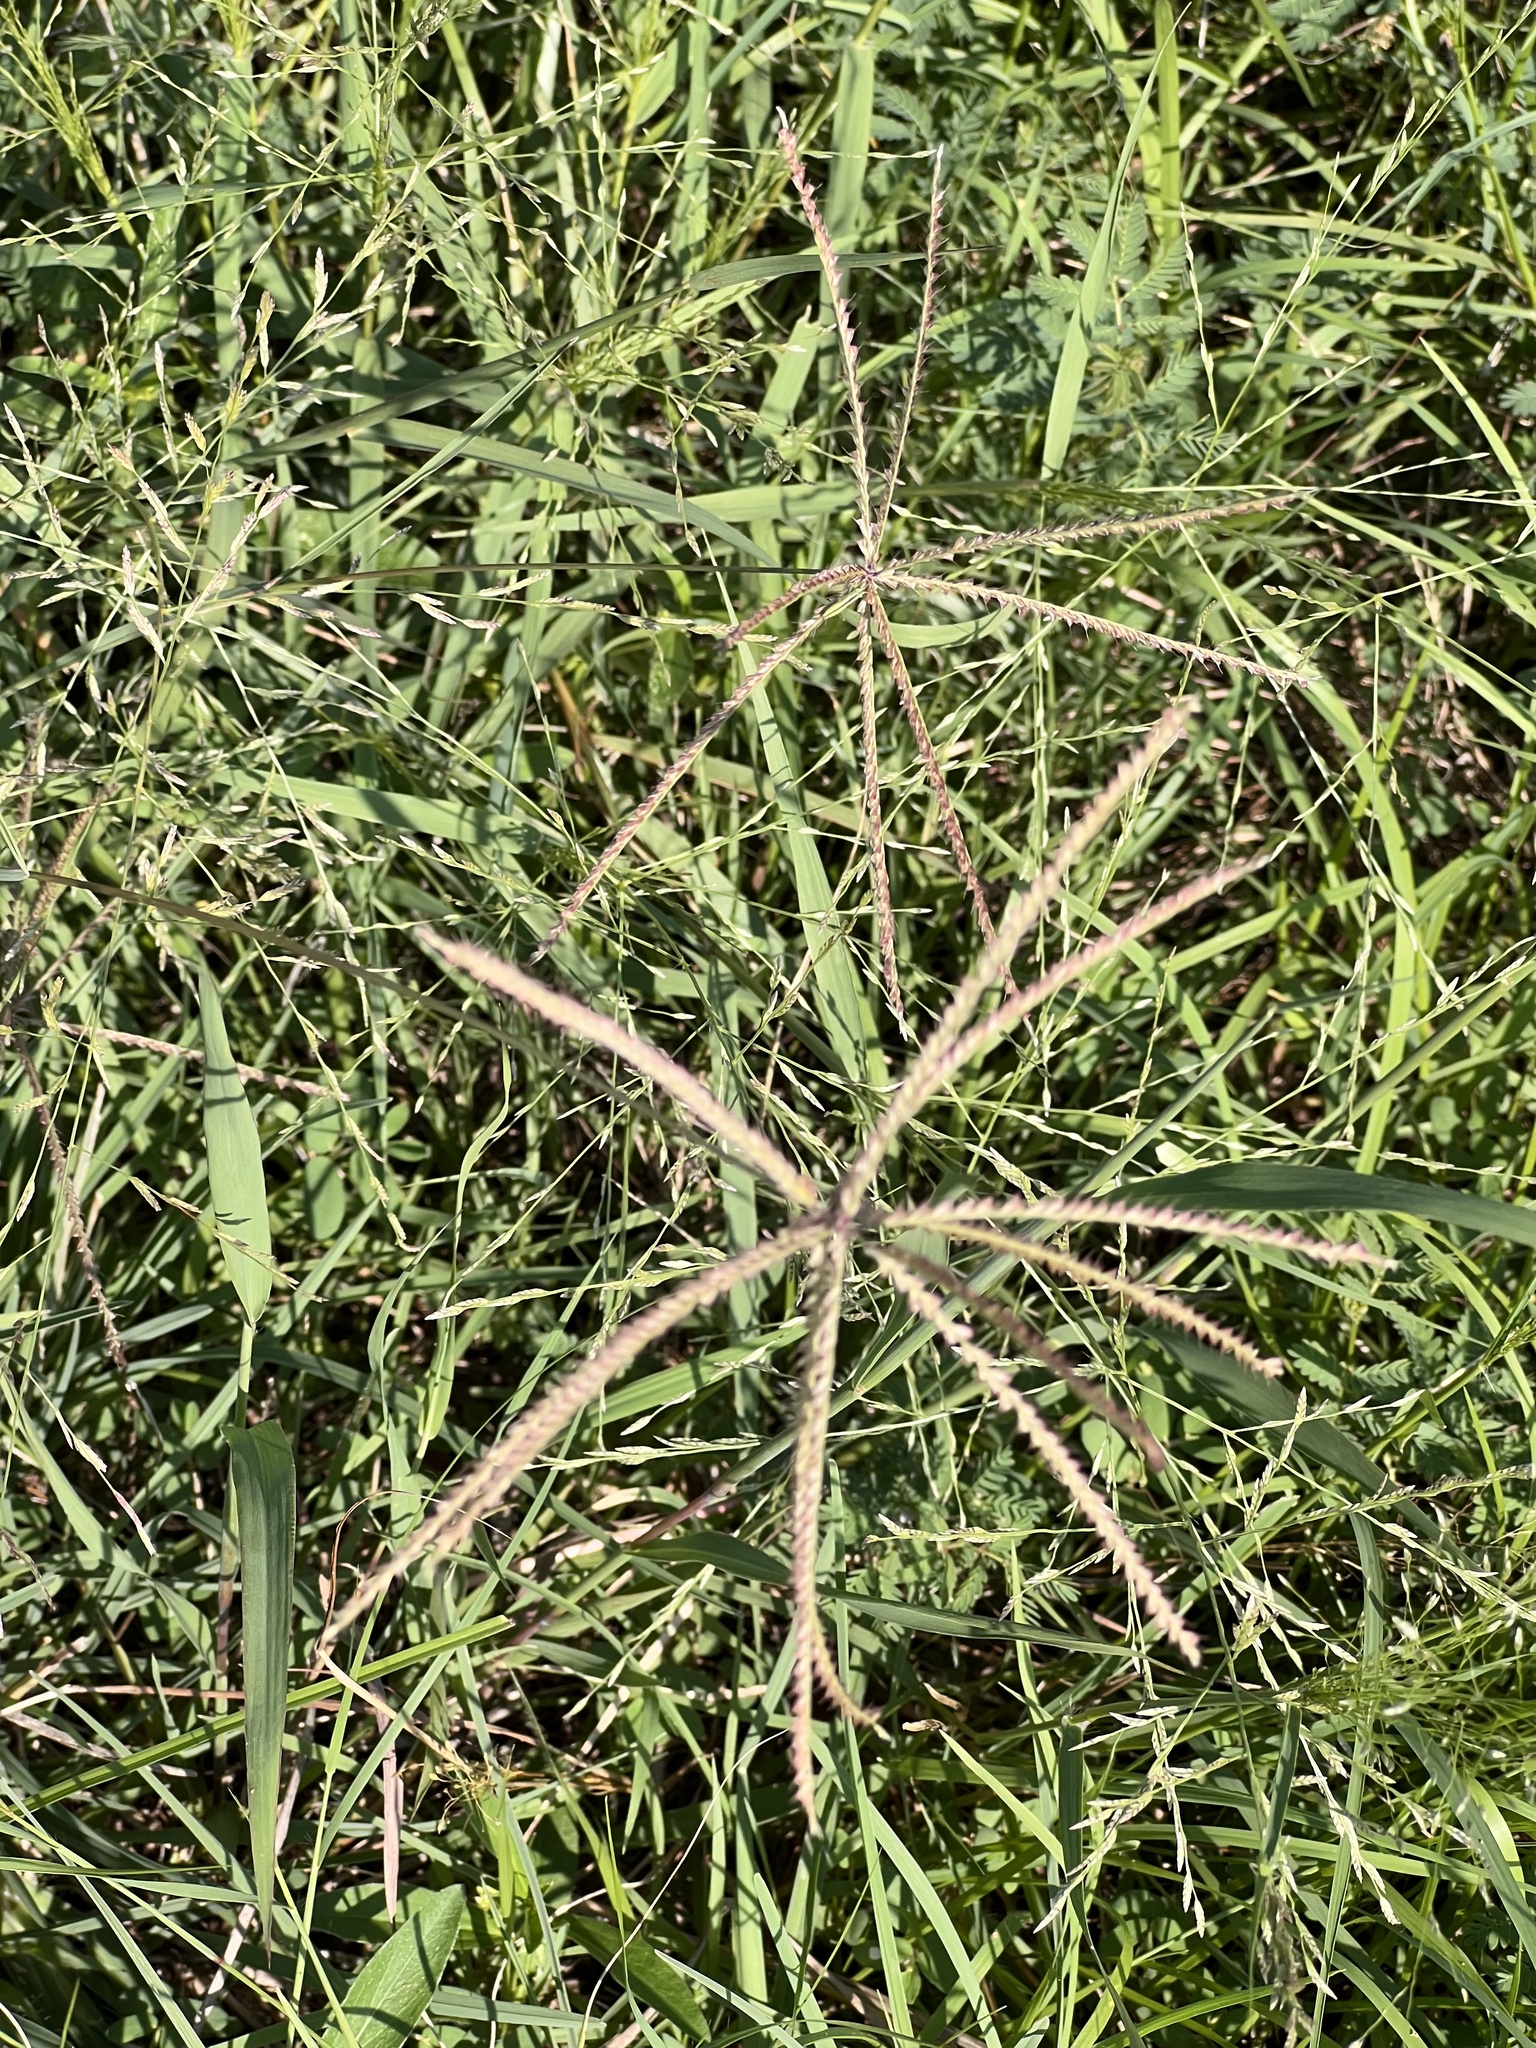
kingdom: Plantae
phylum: Tracheophyta
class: Liliopsida
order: Poales
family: Poaceae
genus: Chloris
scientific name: Chloris subdolichostachya
